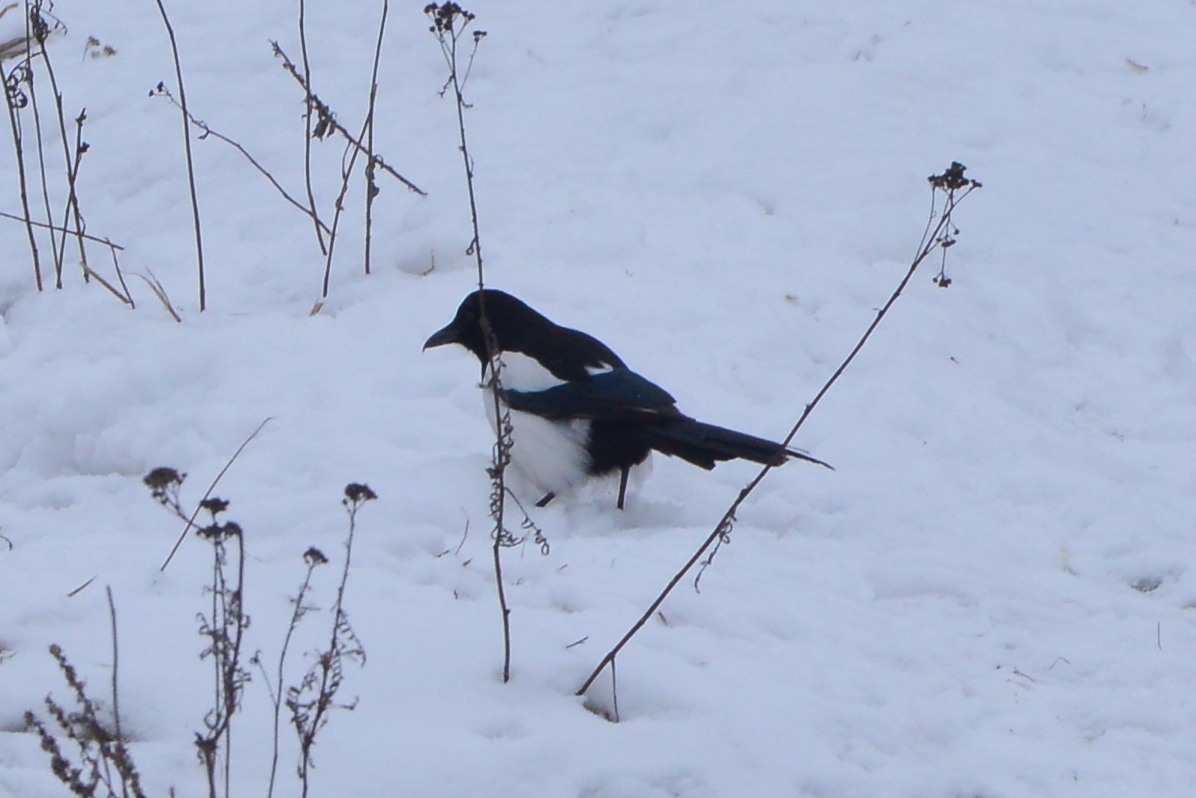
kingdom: Animalia
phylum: Chordata
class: Aves
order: Passeriformes
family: Corvidae
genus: Pica
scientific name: Pica pica
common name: Eurasian magpie
